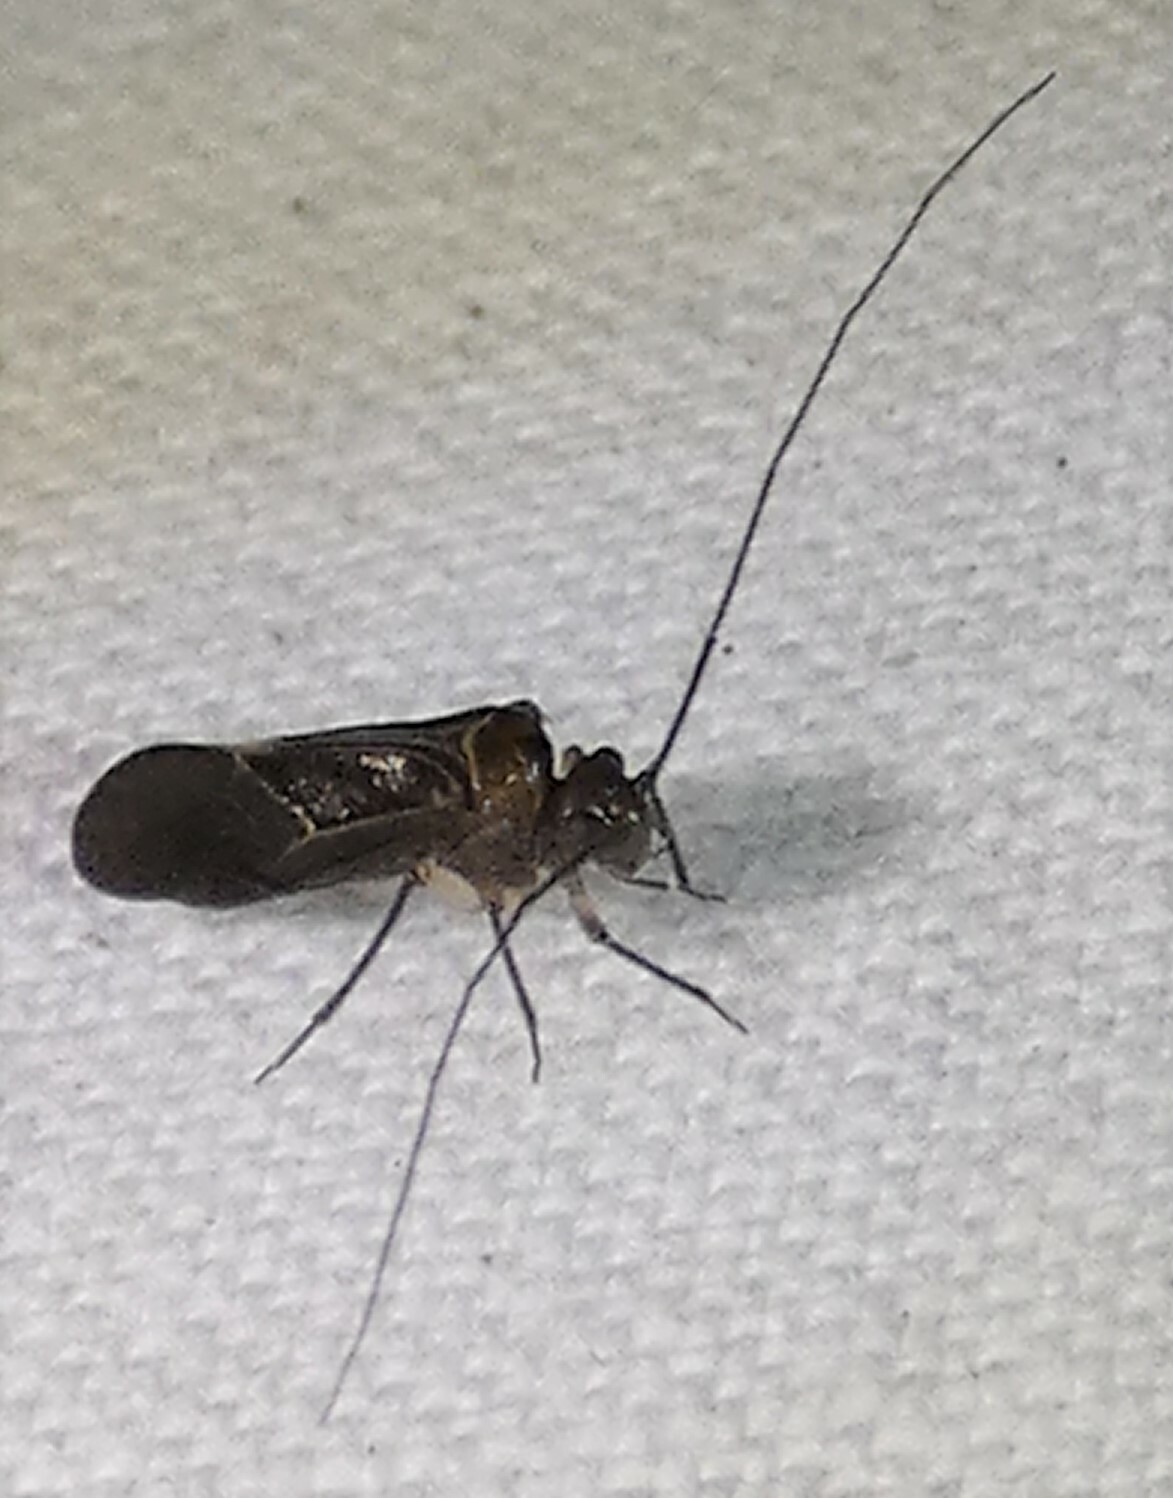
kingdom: Animalia
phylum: Arthropoda
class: Insecta
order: Psocodea
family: Psocidae
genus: Cerastipsocus
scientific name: Cerastipsocus venosus
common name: Tree cattle
